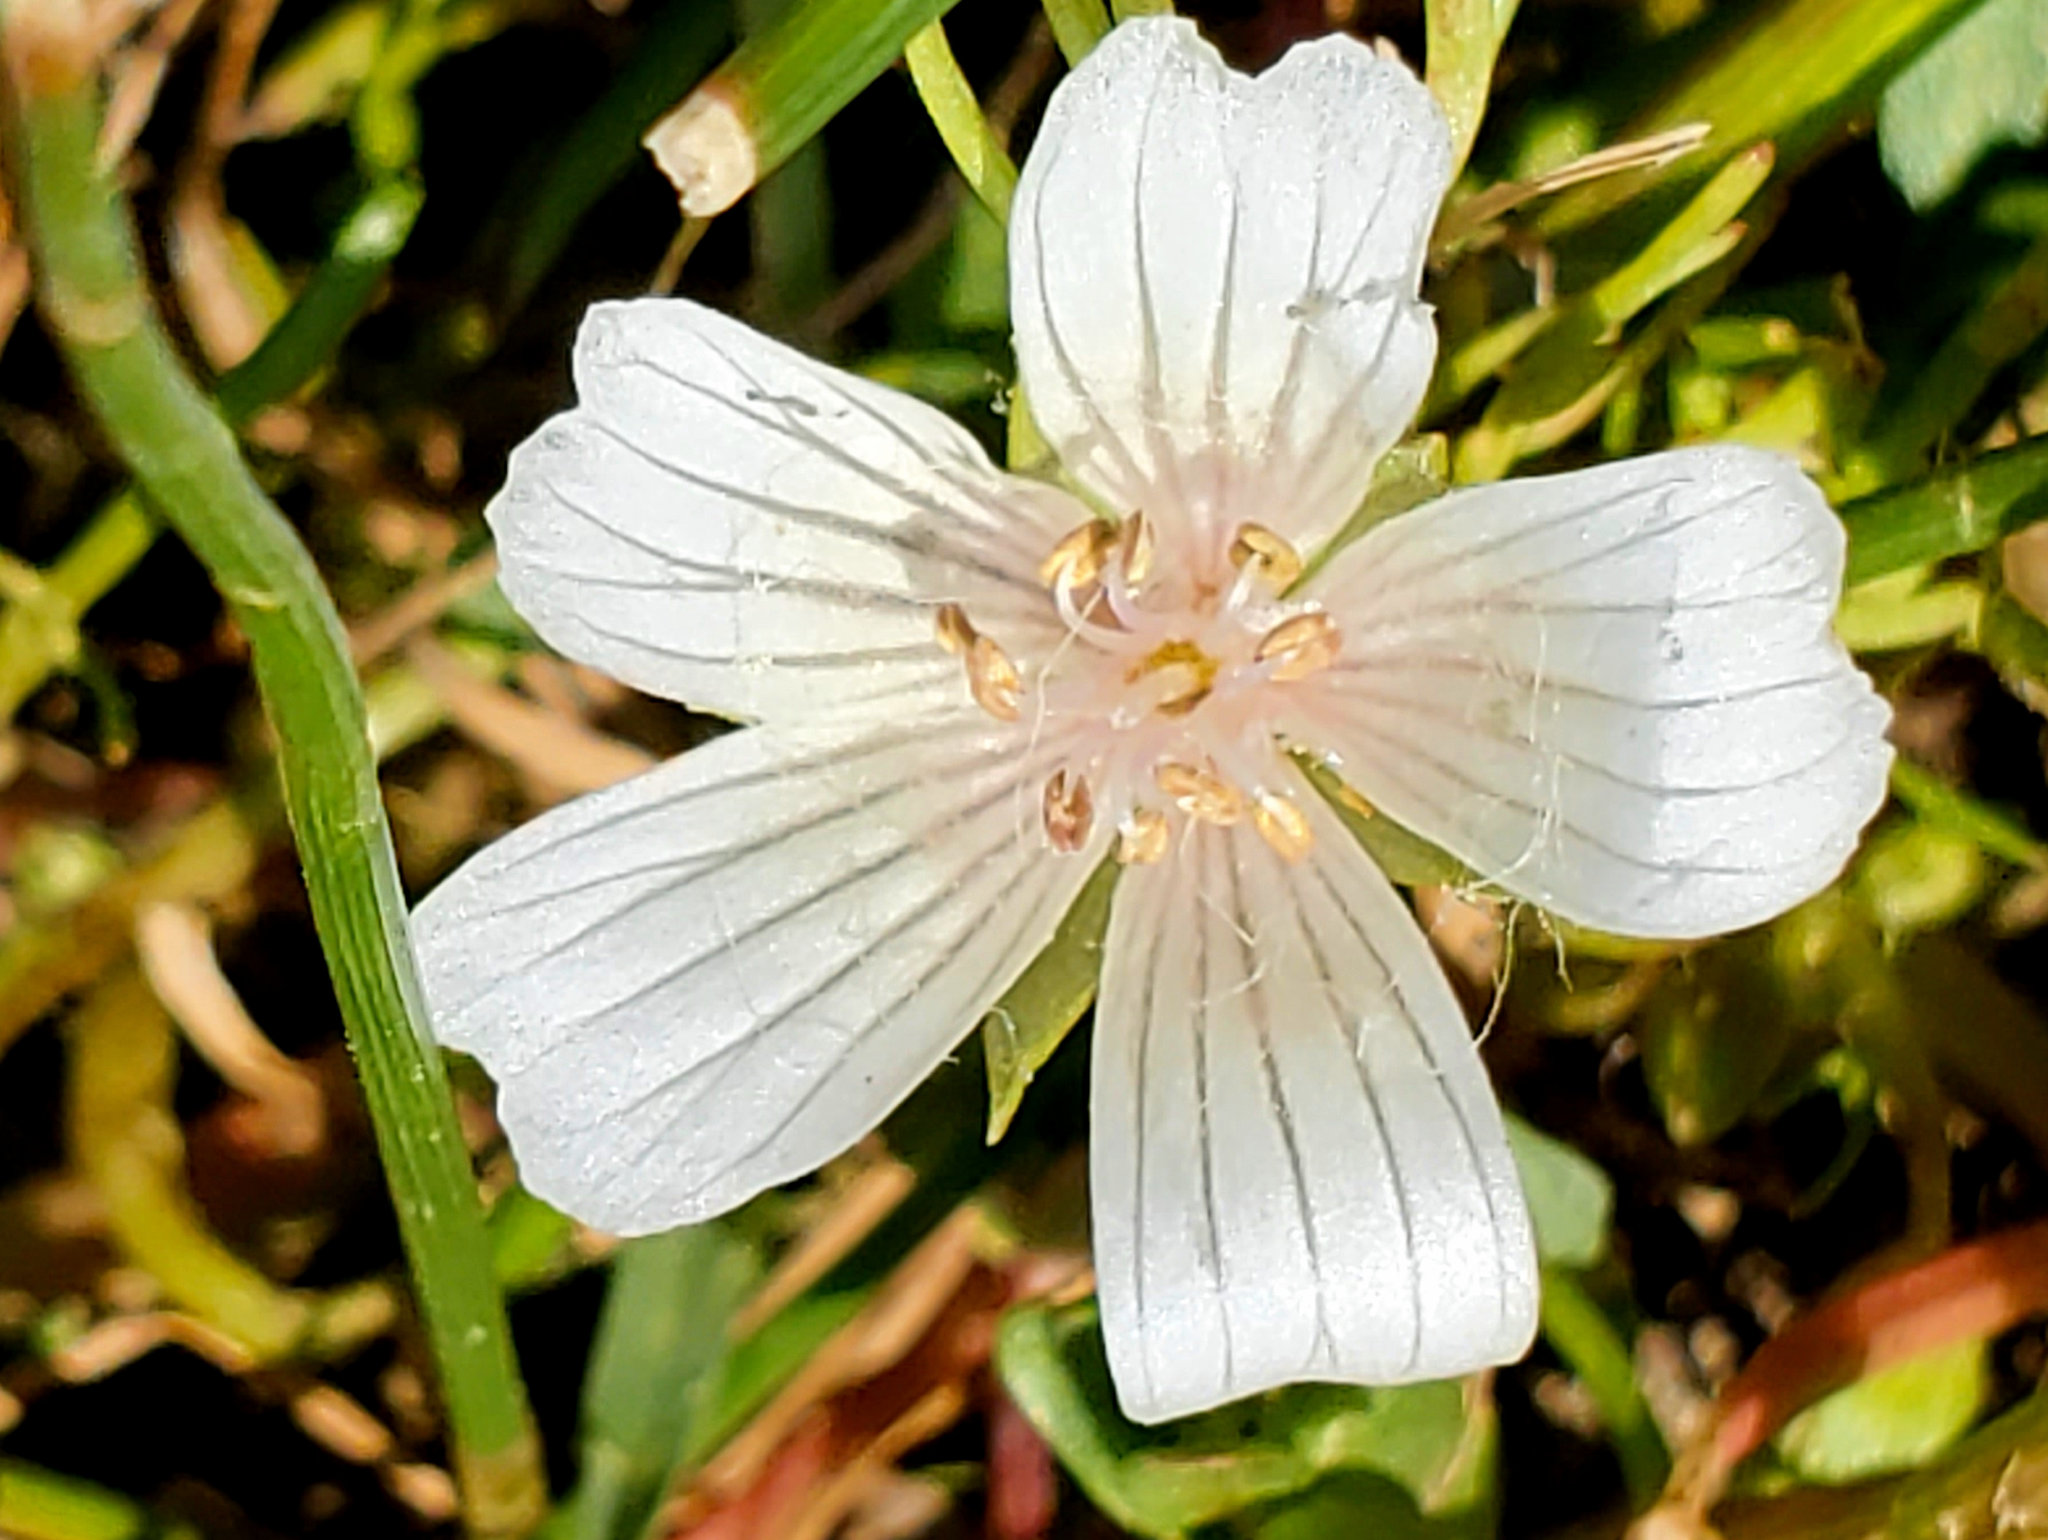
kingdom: Plantae
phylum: Tracheophyta
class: Magnoliopsida
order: Brassicales
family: Limnanthaceae
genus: Limnanthes
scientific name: Limnanthes douglasii
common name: Meadow-foam
